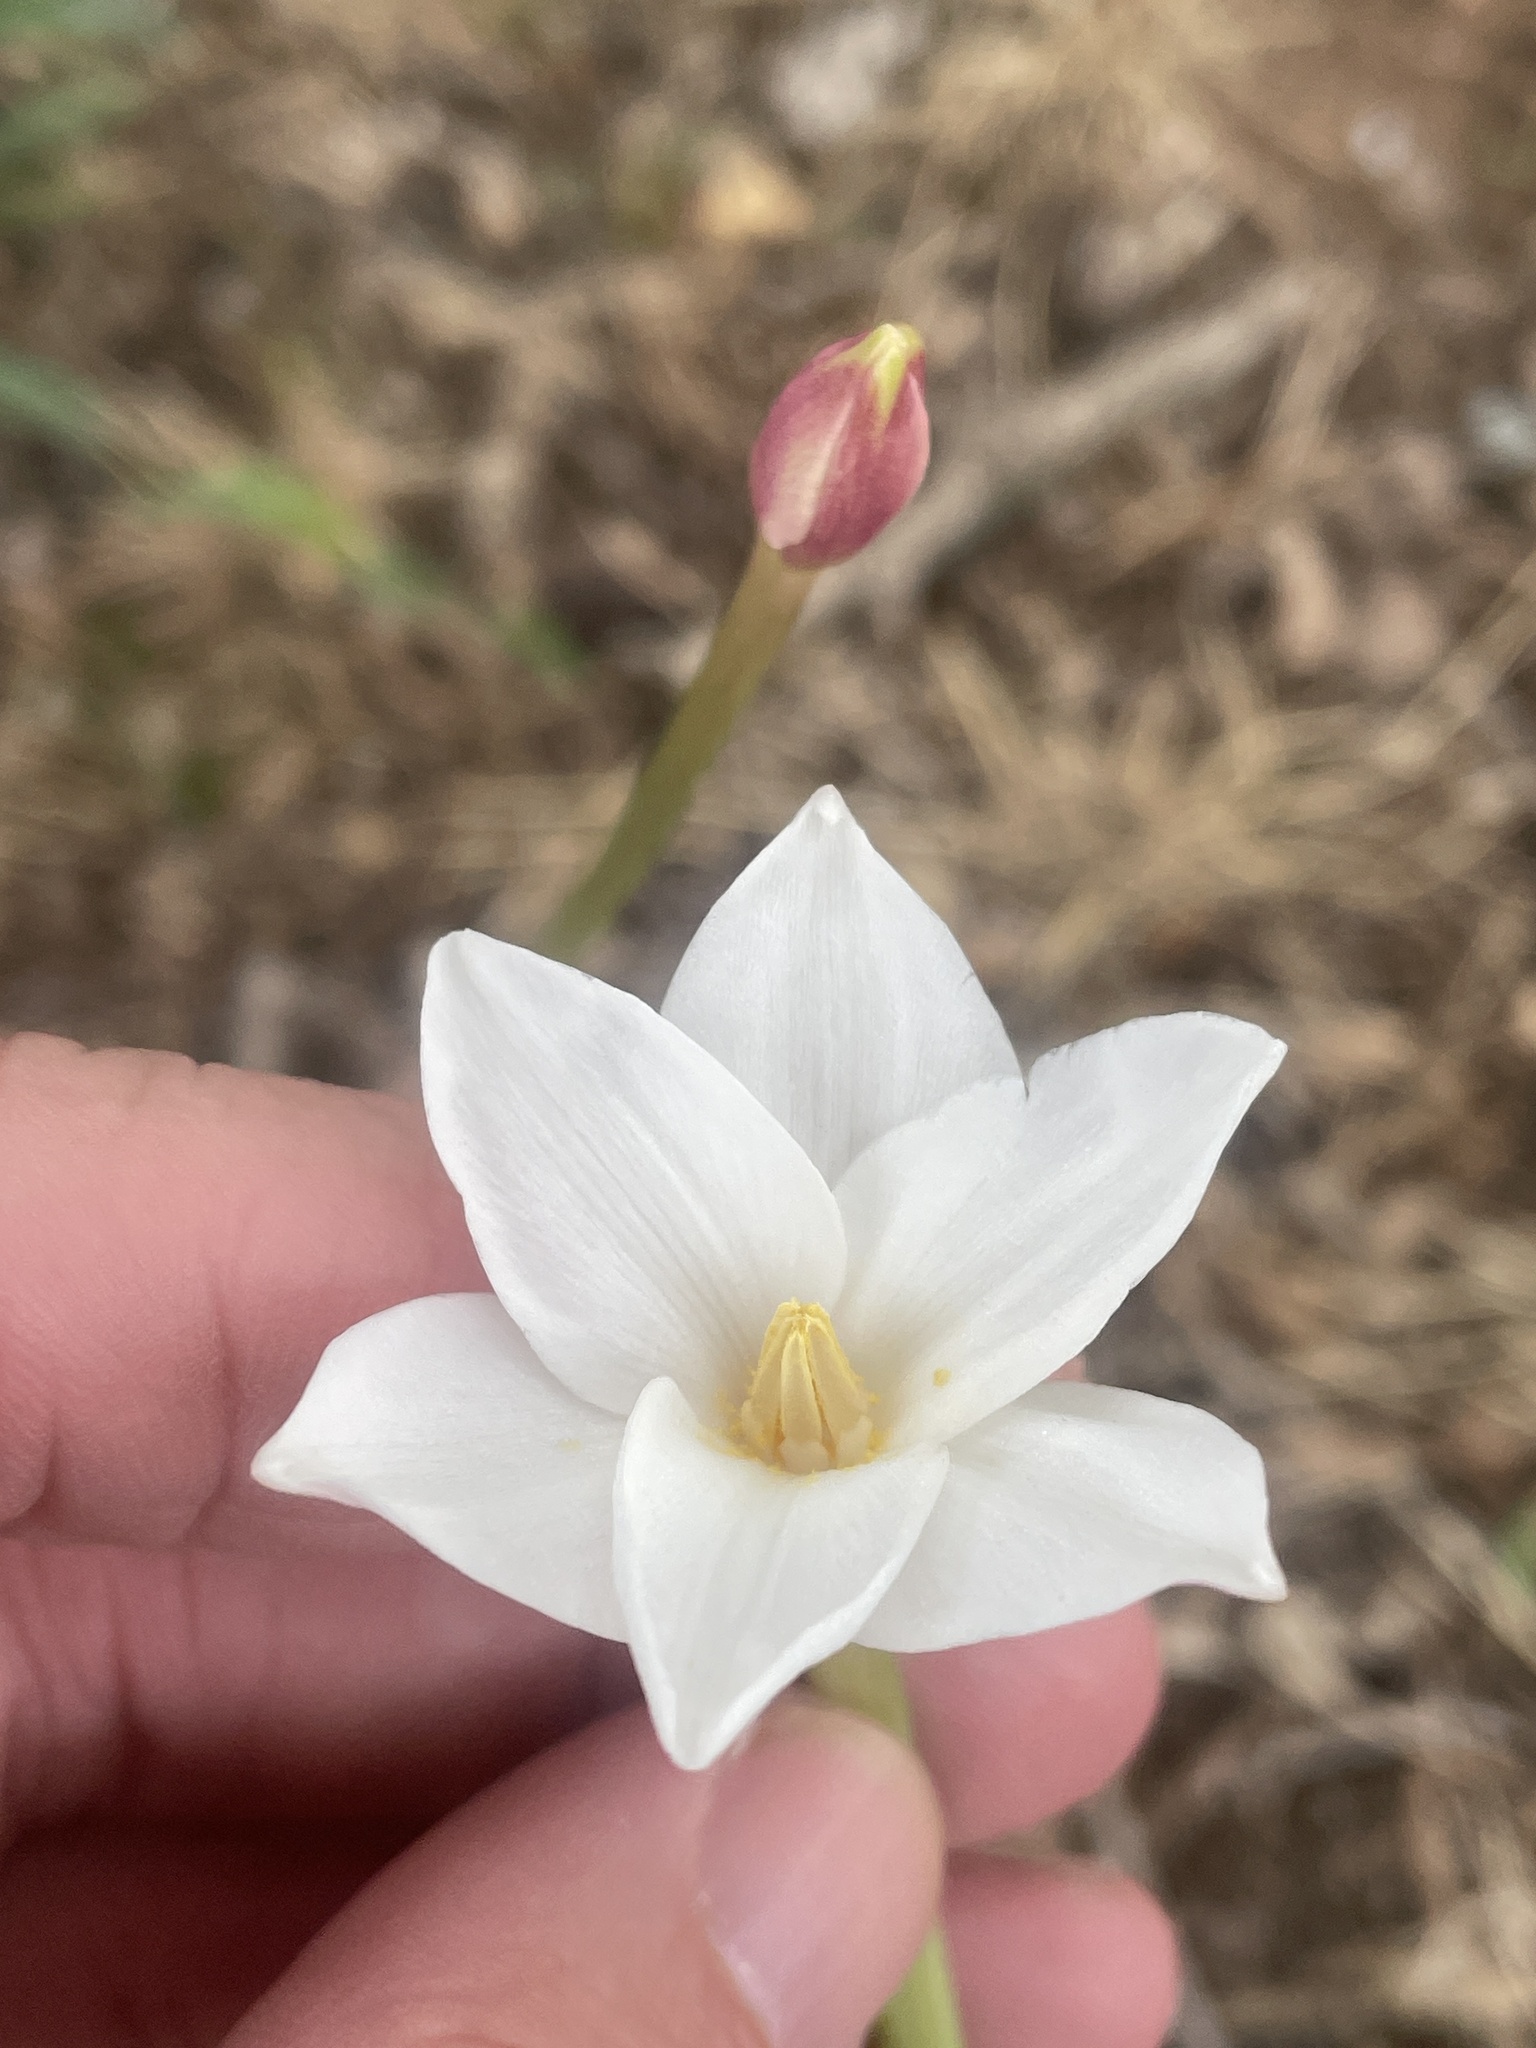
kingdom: Plantae
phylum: Tracheophyta
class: Liliopsida
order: Asparagales
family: Amaryllidaceae
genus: Zephyranthes
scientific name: Zephyranthes chlorosolen
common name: Evening rain-lily
